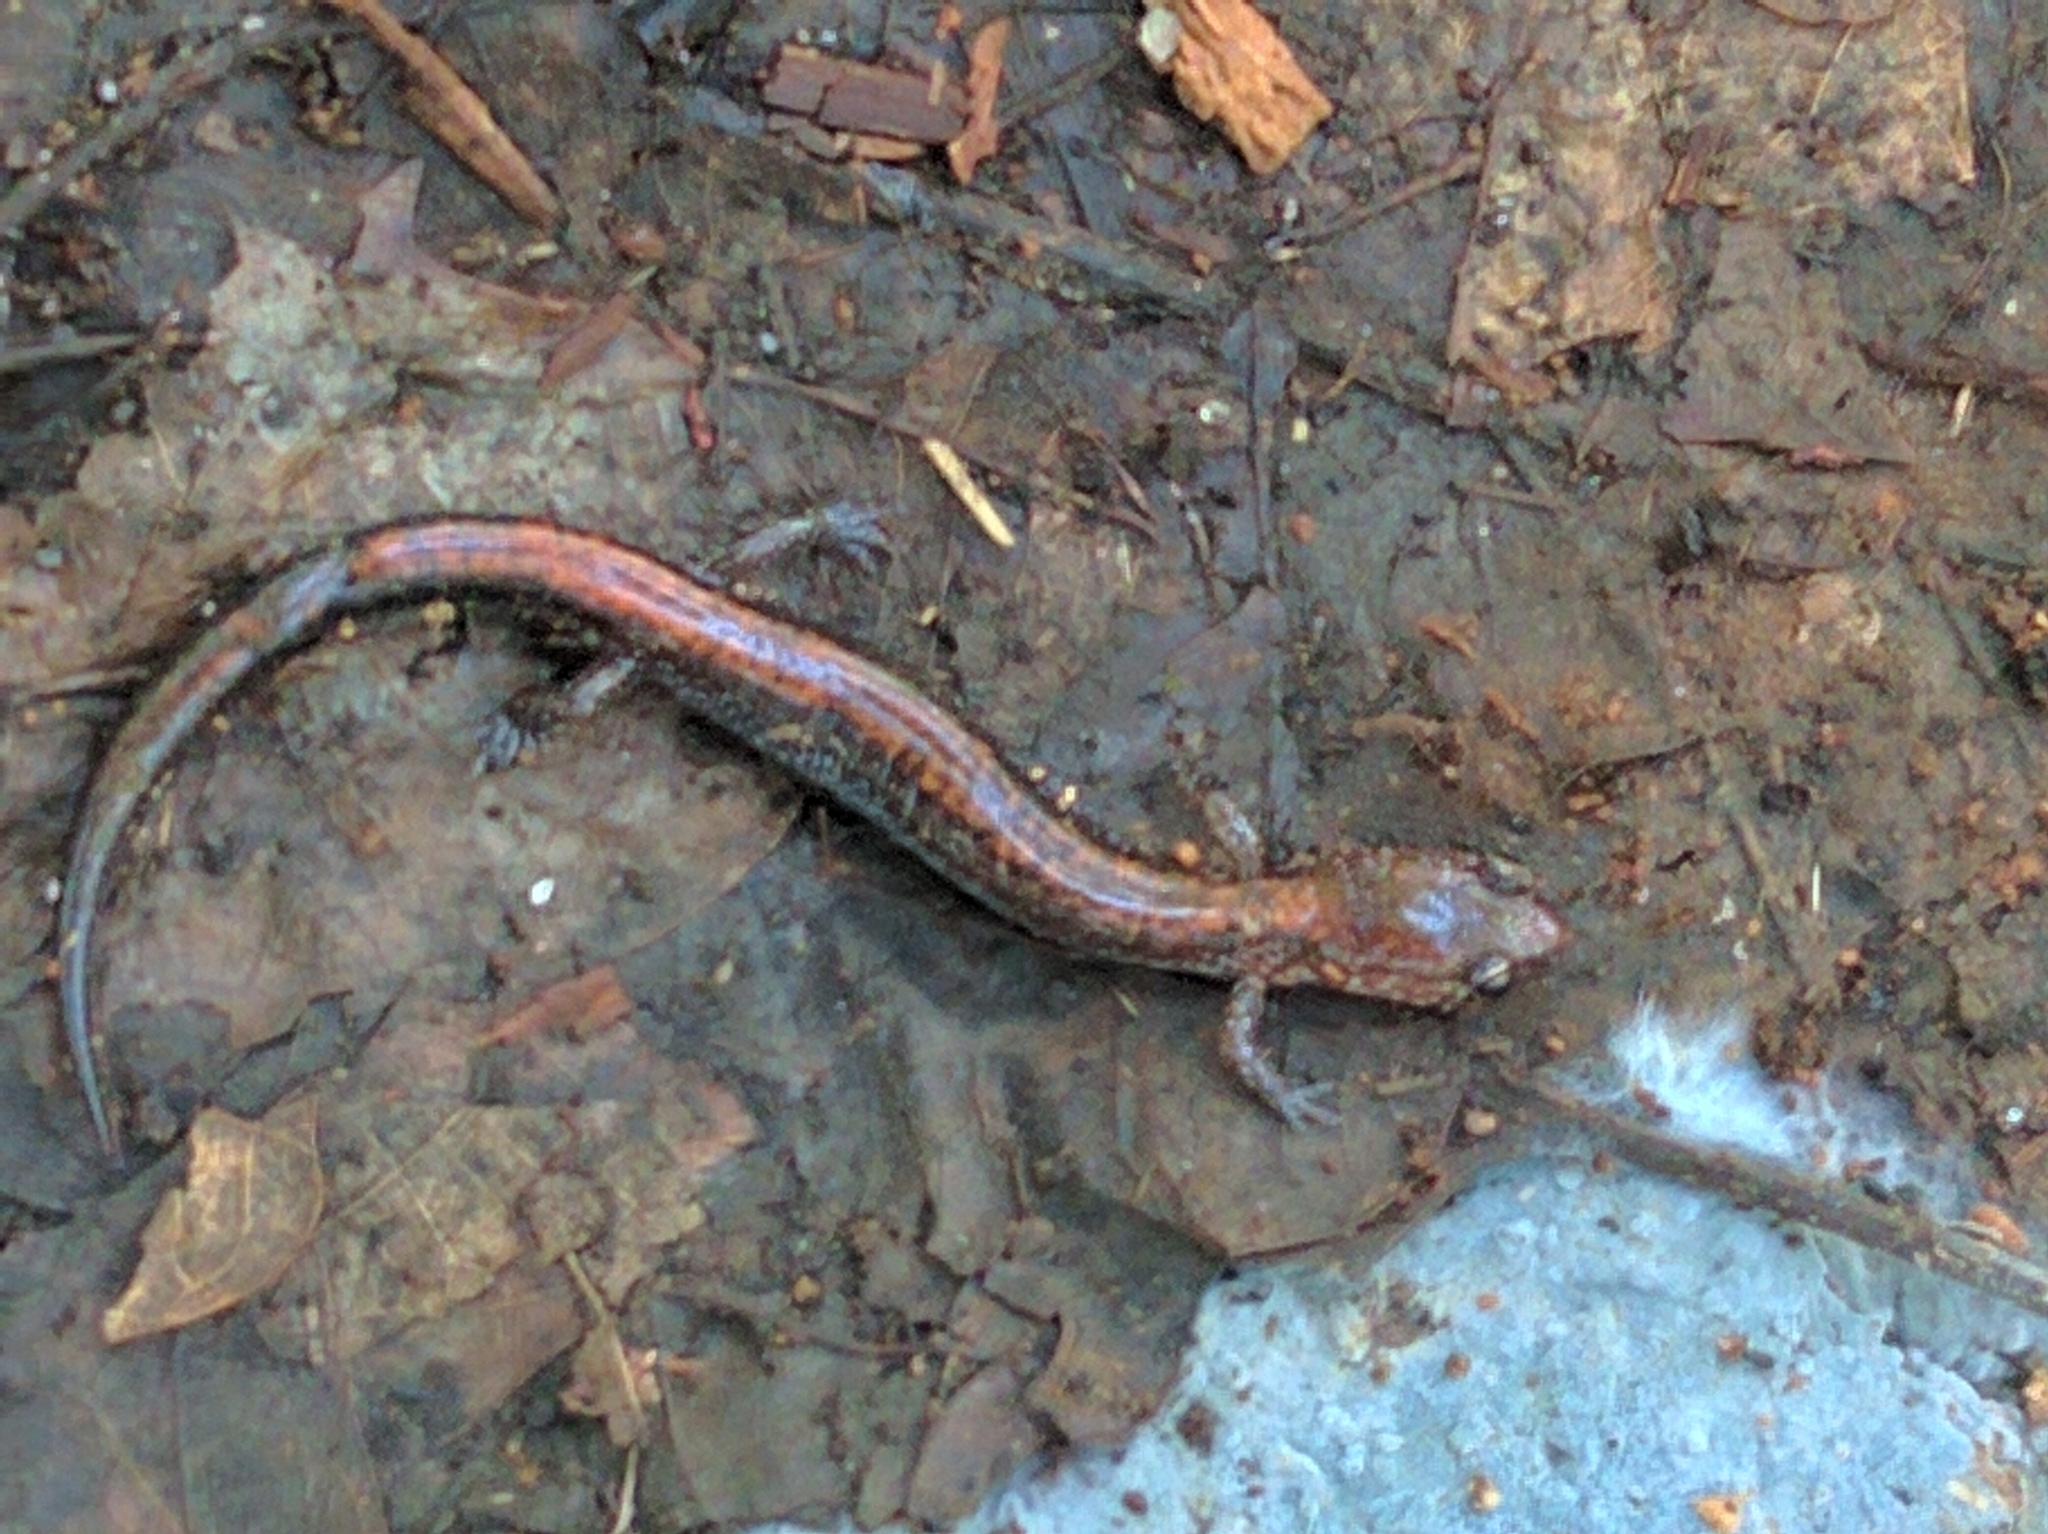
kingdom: Animalia
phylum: Chordata
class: Amphibia
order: Caudata
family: Plethodontidae
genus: Plethodon
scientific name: Plethodon cinereus
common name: Redback salamander
